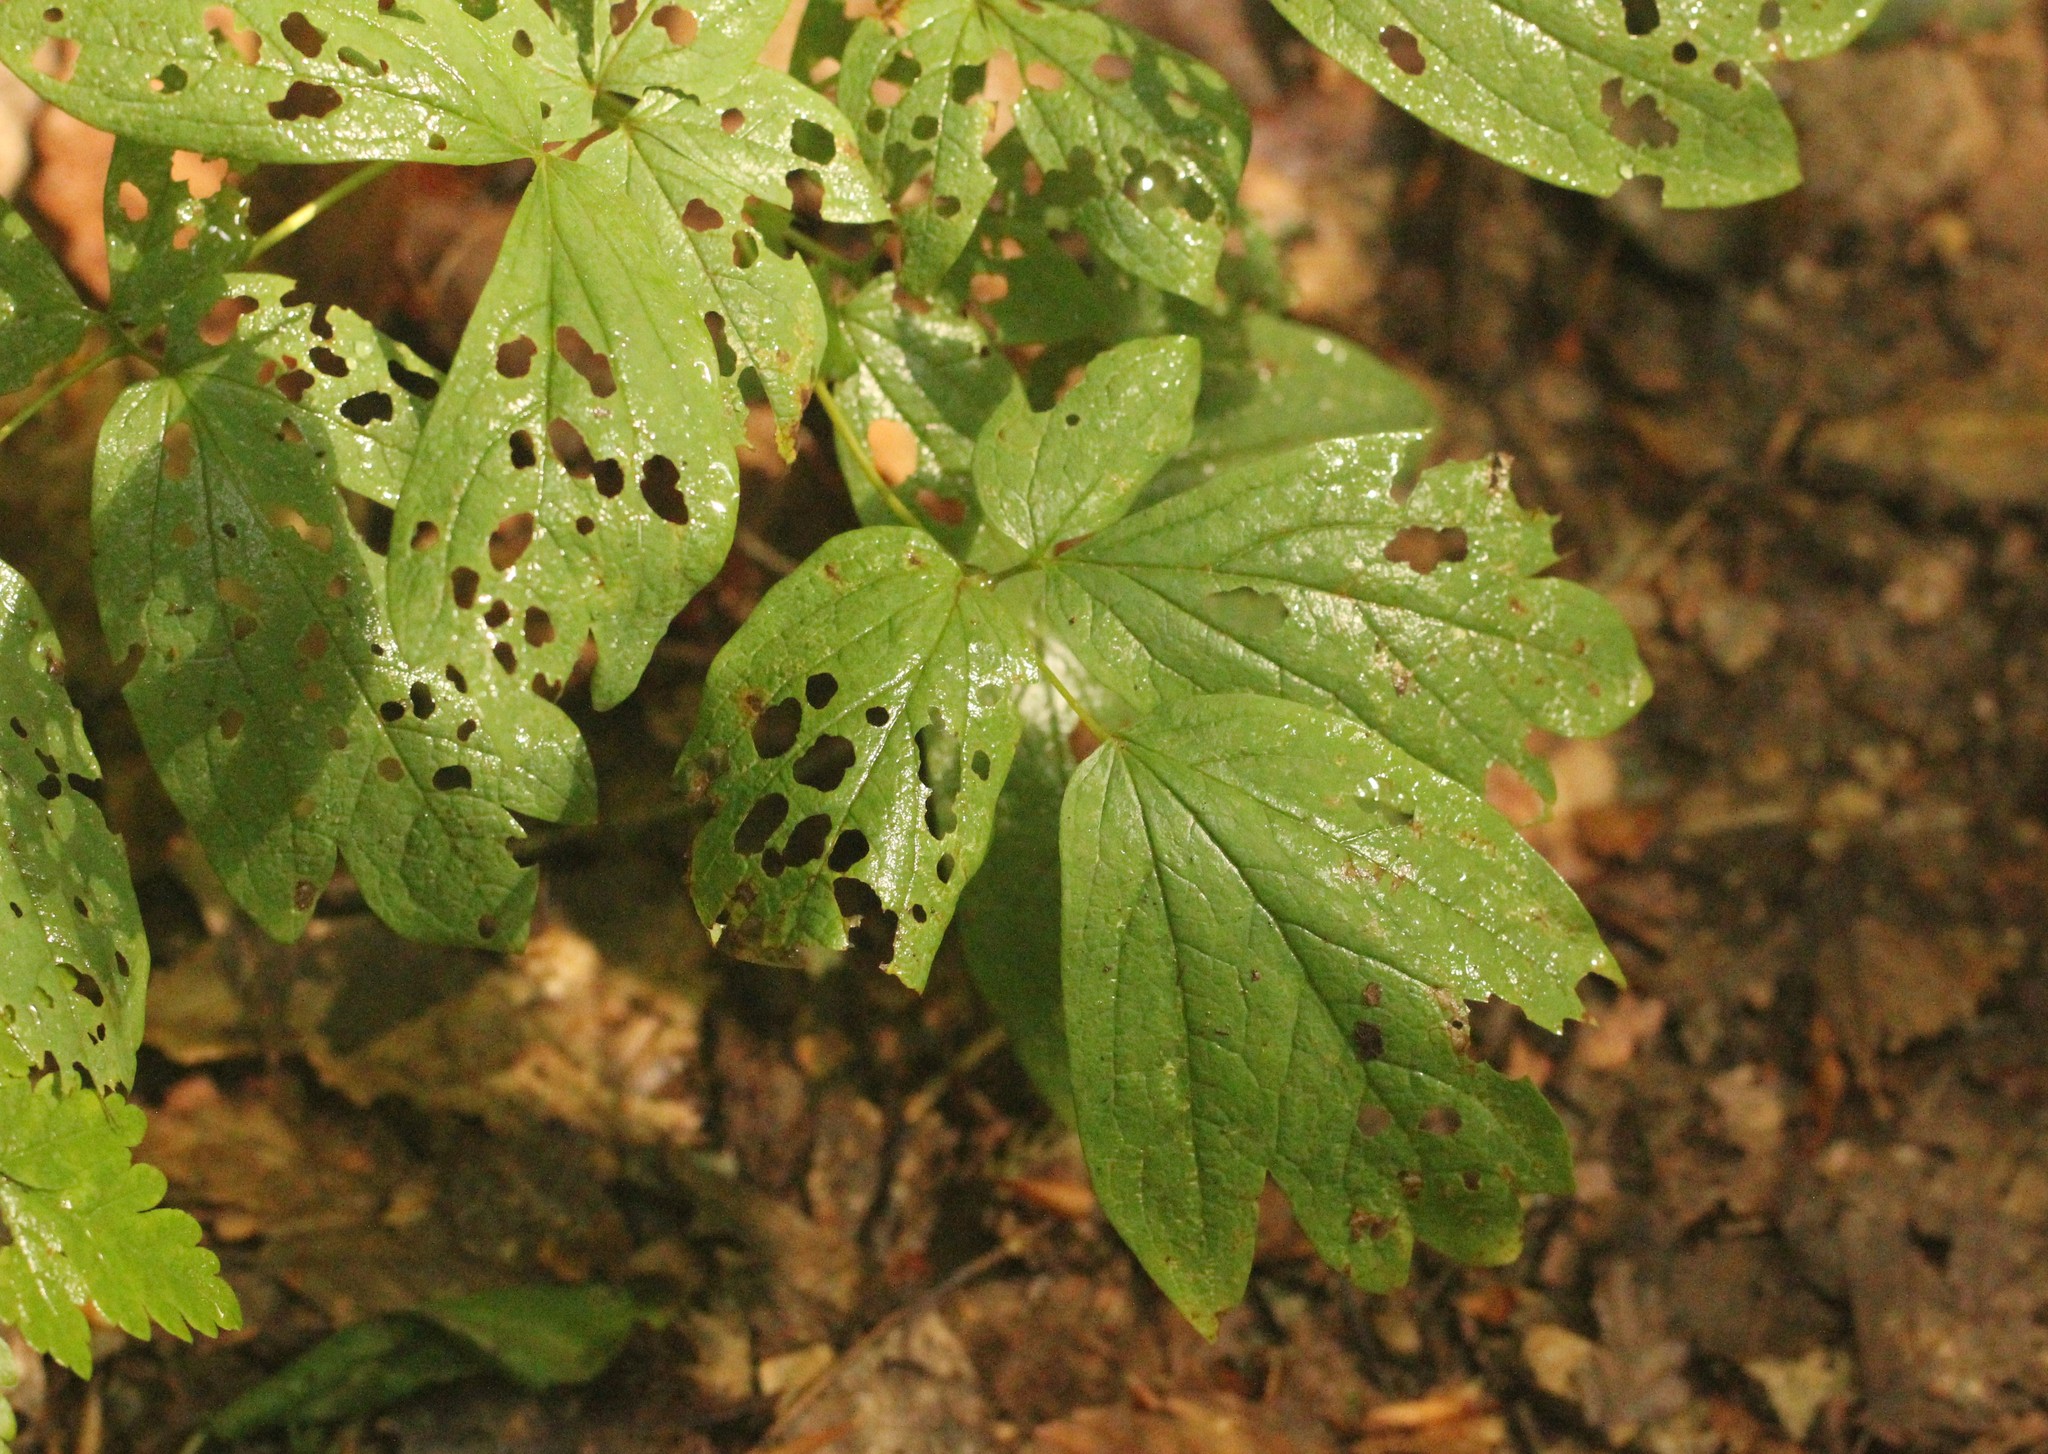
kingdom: Plantae
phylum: Tracheophyta
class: Magnoliopsida
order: Ranunculales
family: Berberidaceae
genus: Caulophyllum
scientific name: Caulophyllum thalictroides
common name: Blue cohosh
